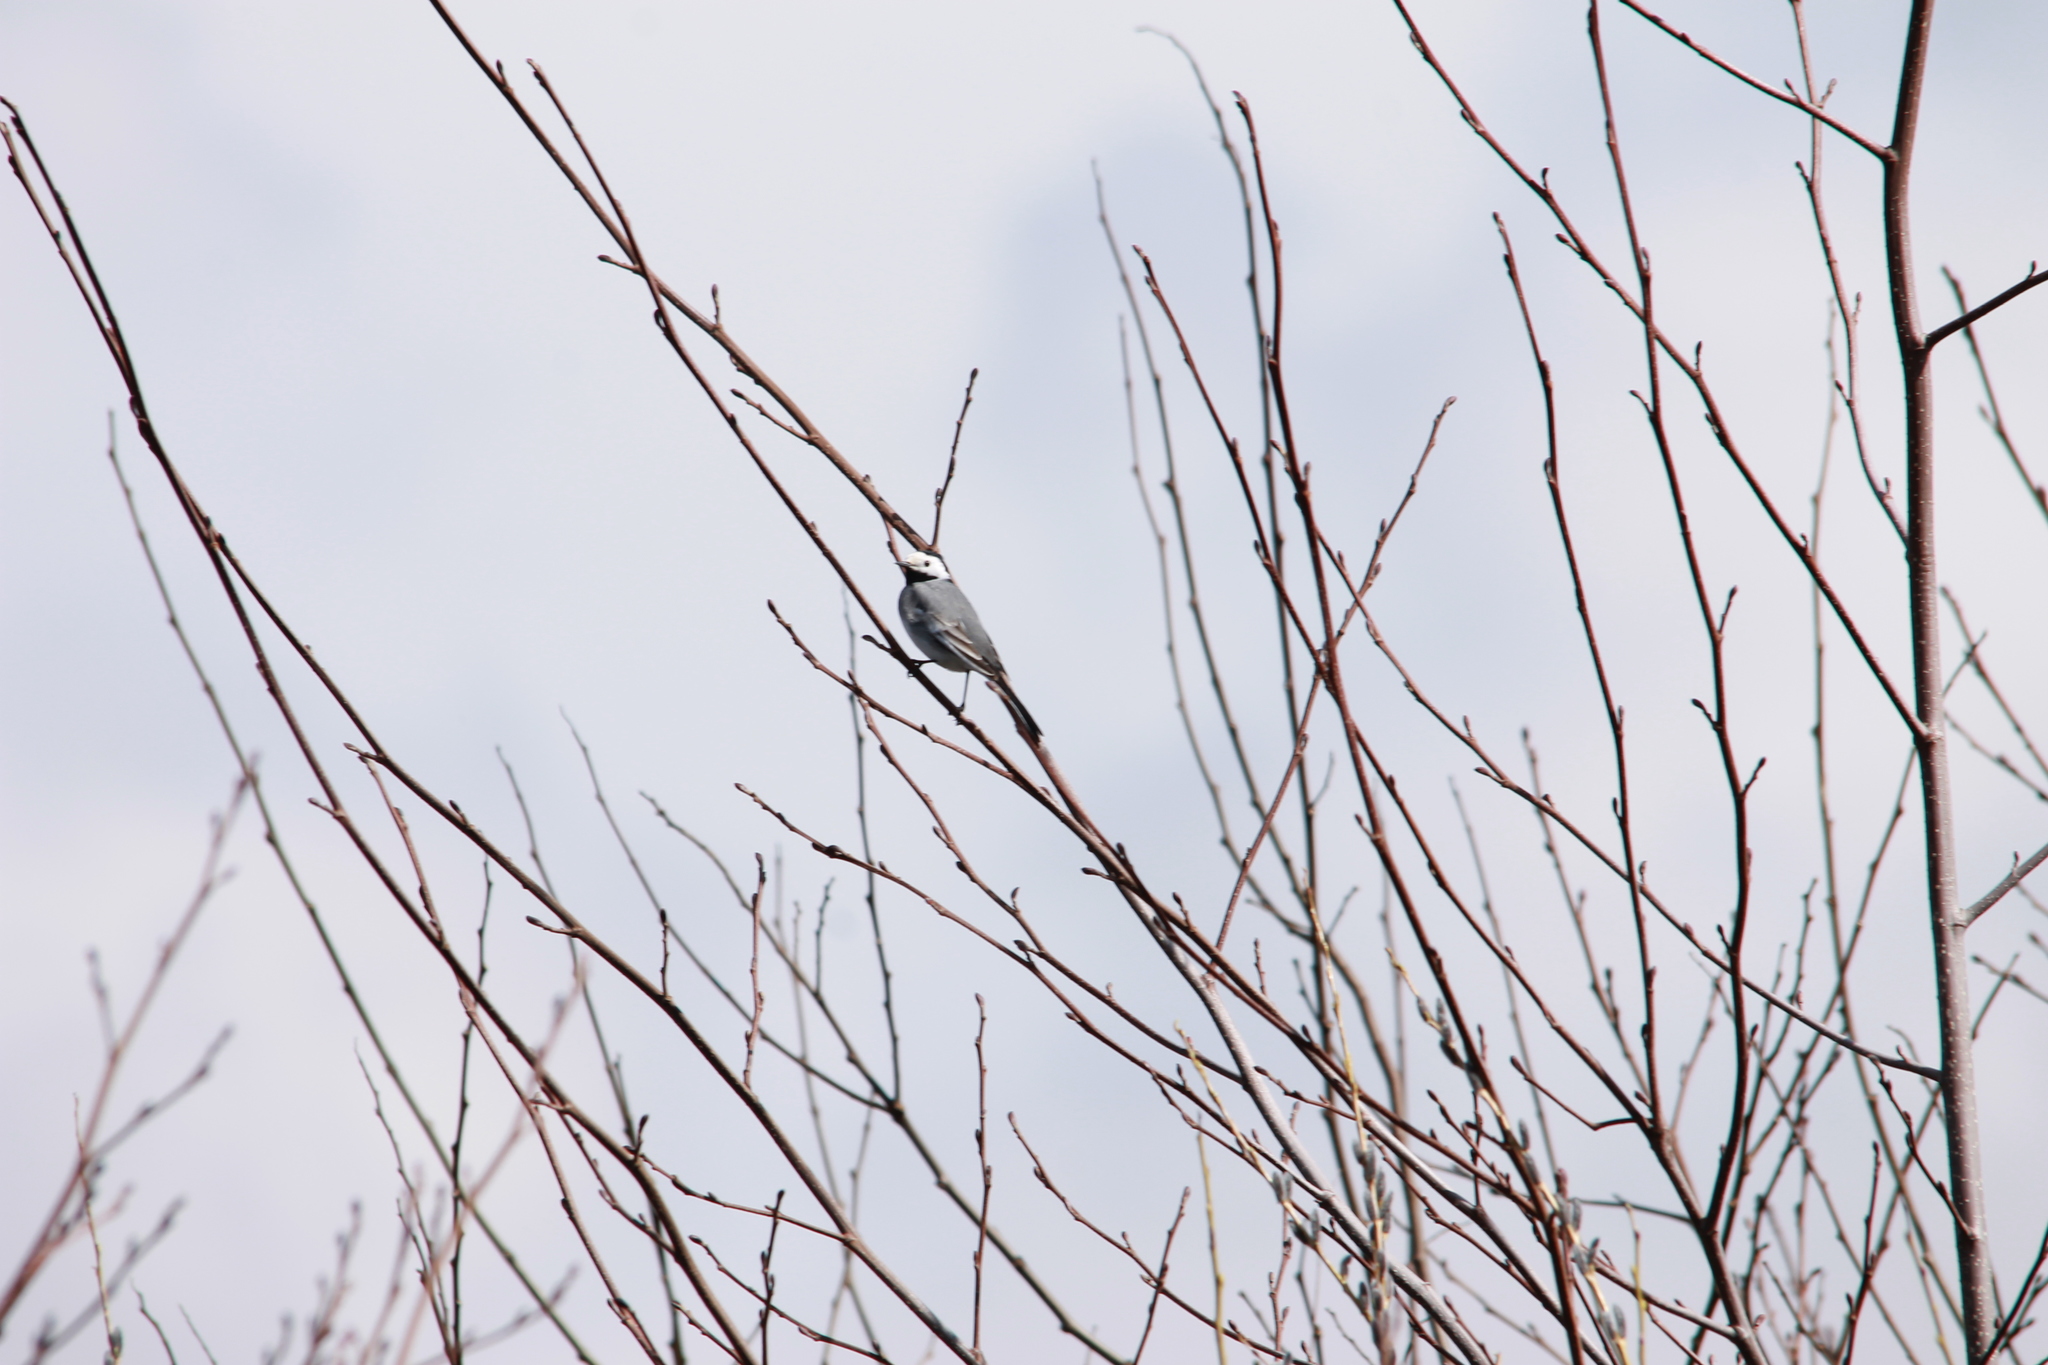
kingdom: Animalia
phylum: Chordata
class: Aves
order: Passeriformes
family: Motacillidae
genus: Motacilla
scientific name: Motacilla alba
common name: White wagtail
